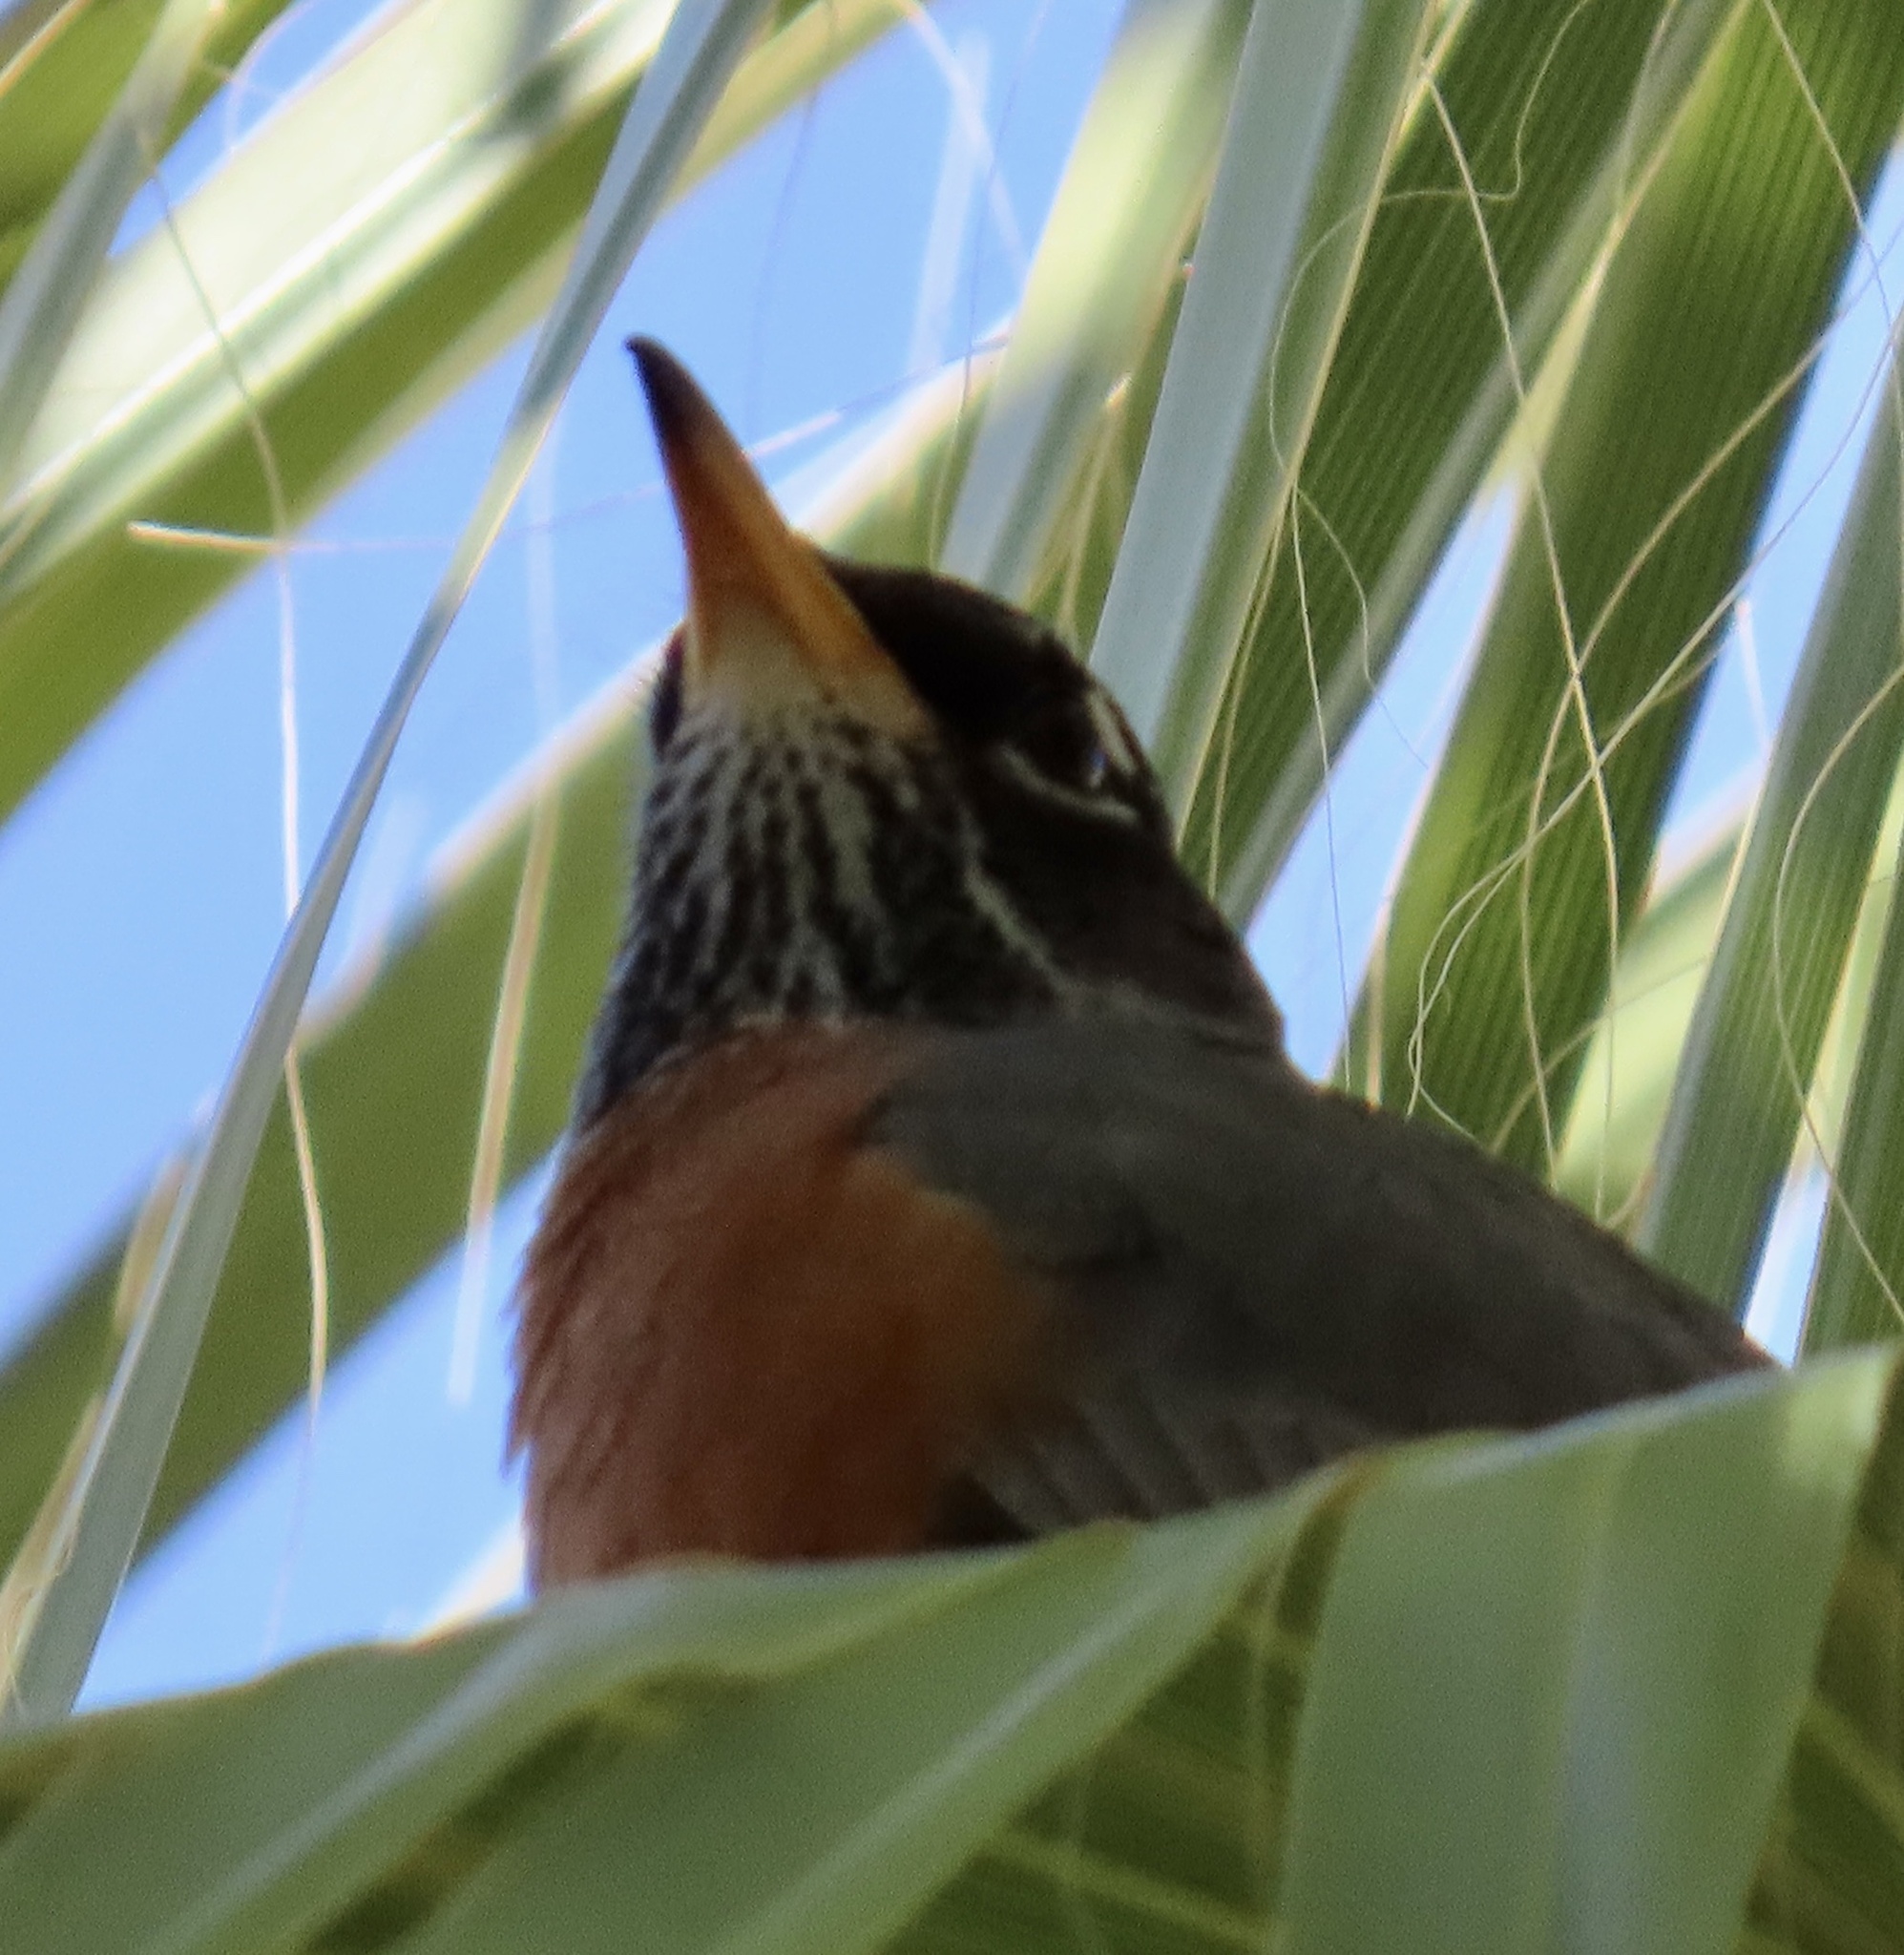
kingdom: Animalia
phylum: Chordata
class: Aves
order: Passeriformes
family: Turdidae
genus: Turdus
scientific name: Turdus migratorius
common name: American robin
